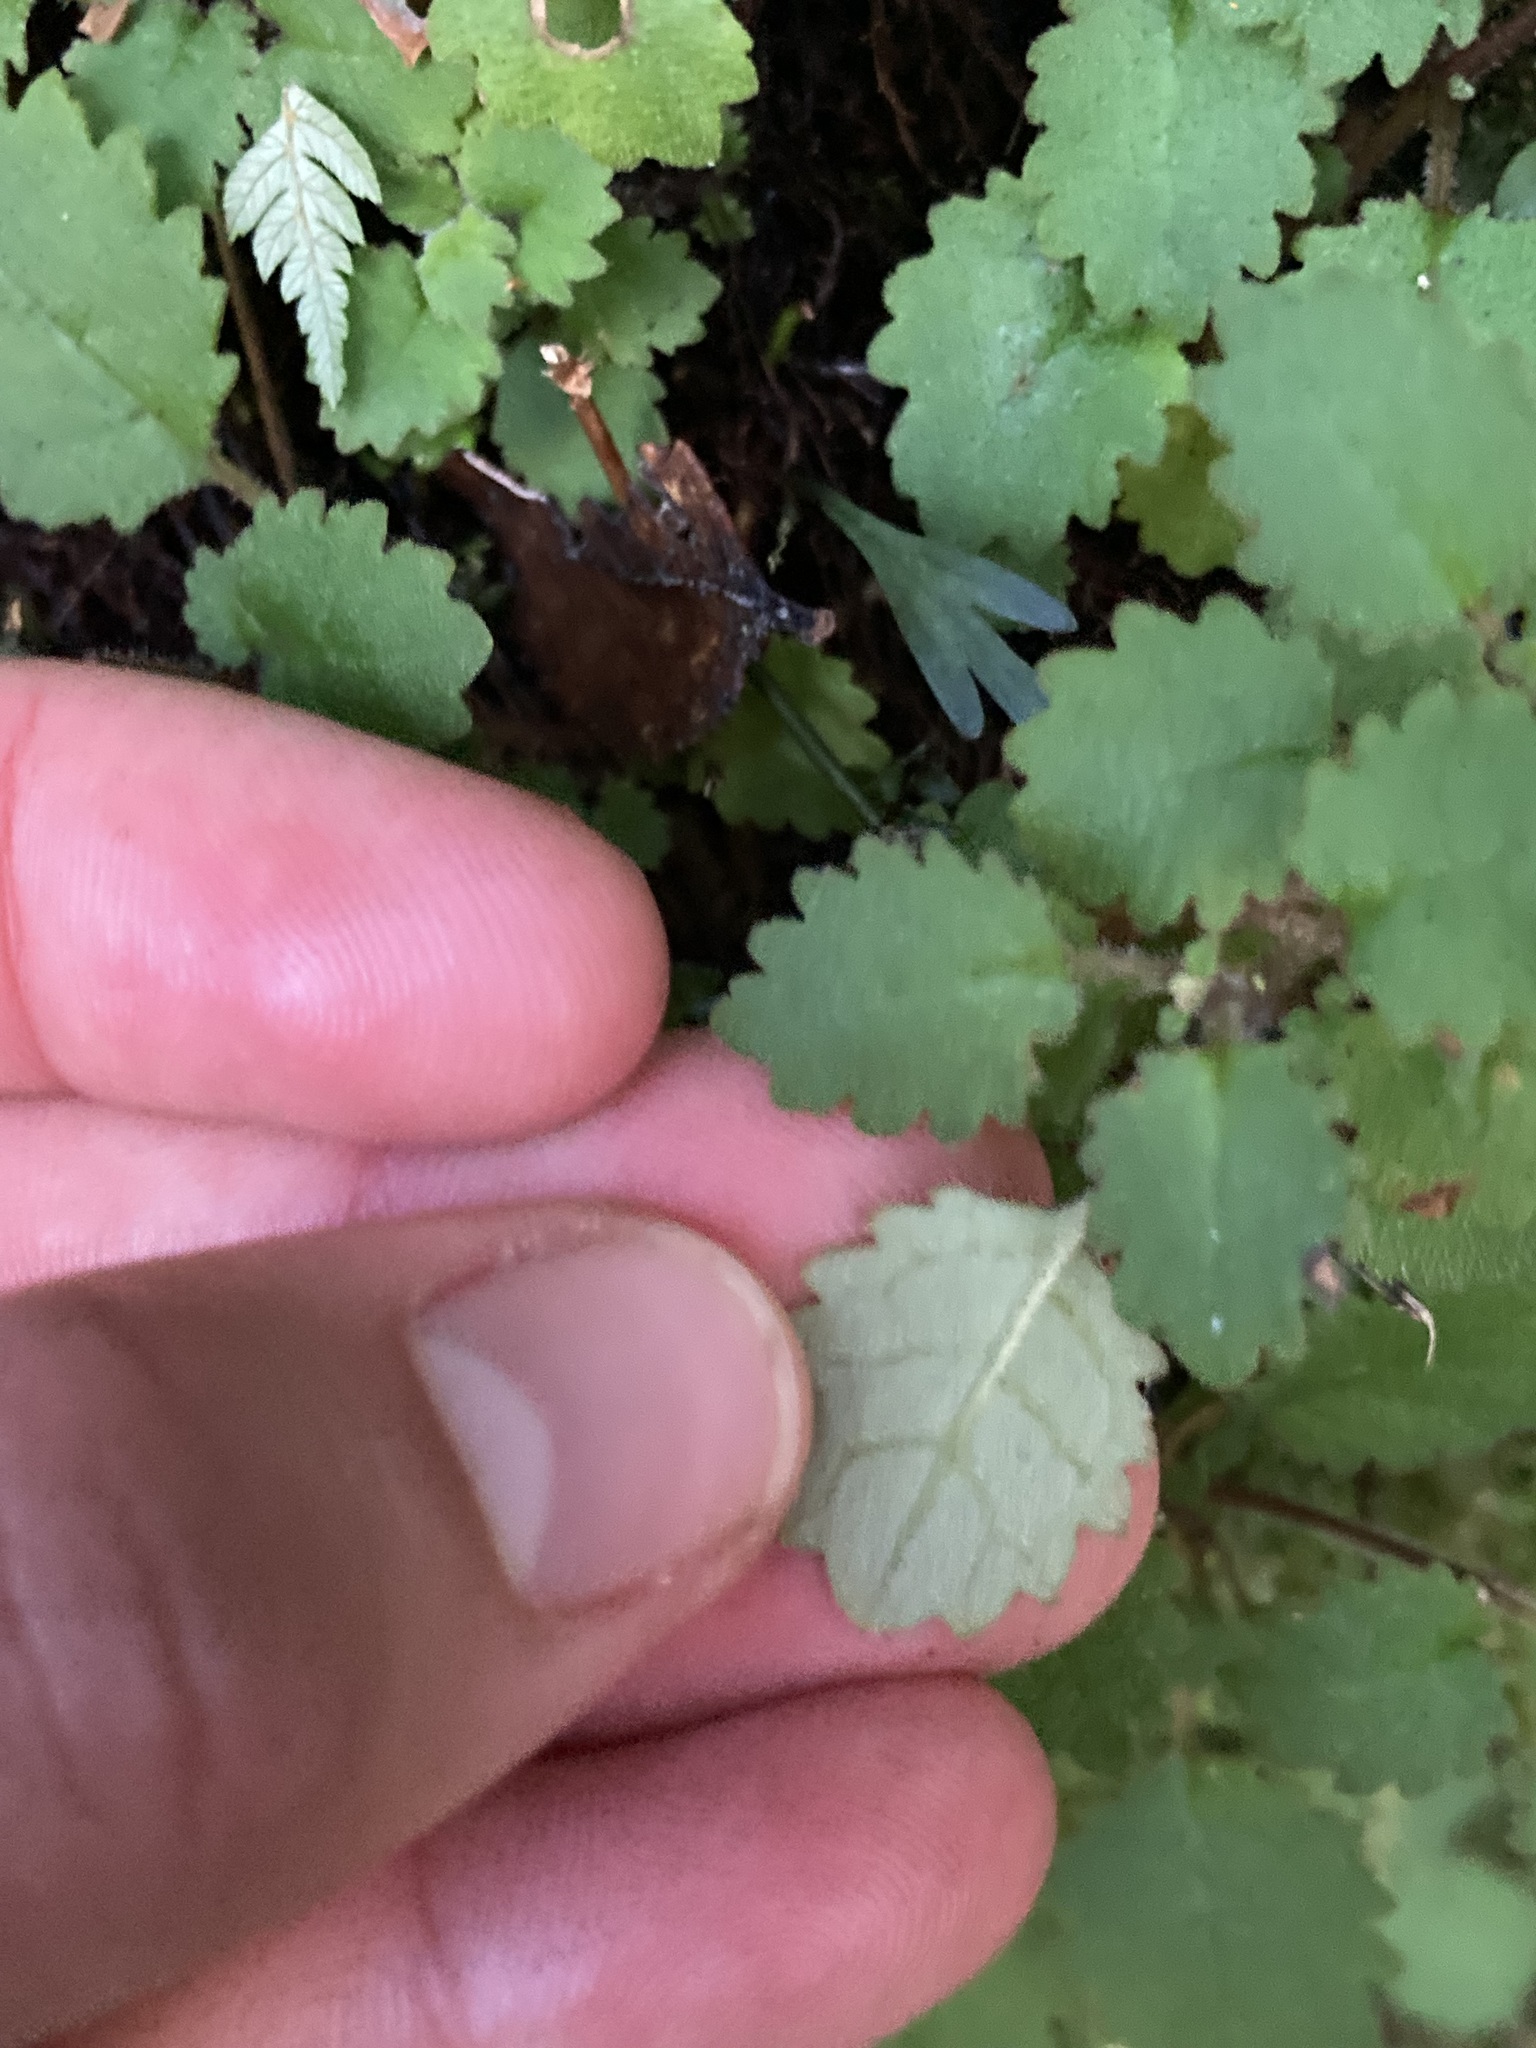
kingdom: Plantae
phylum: Tracheophyta
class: Magnoliopsida
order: Lamiales
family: Calceolariaceae
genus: Jovellana
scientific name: Jovellana repens
